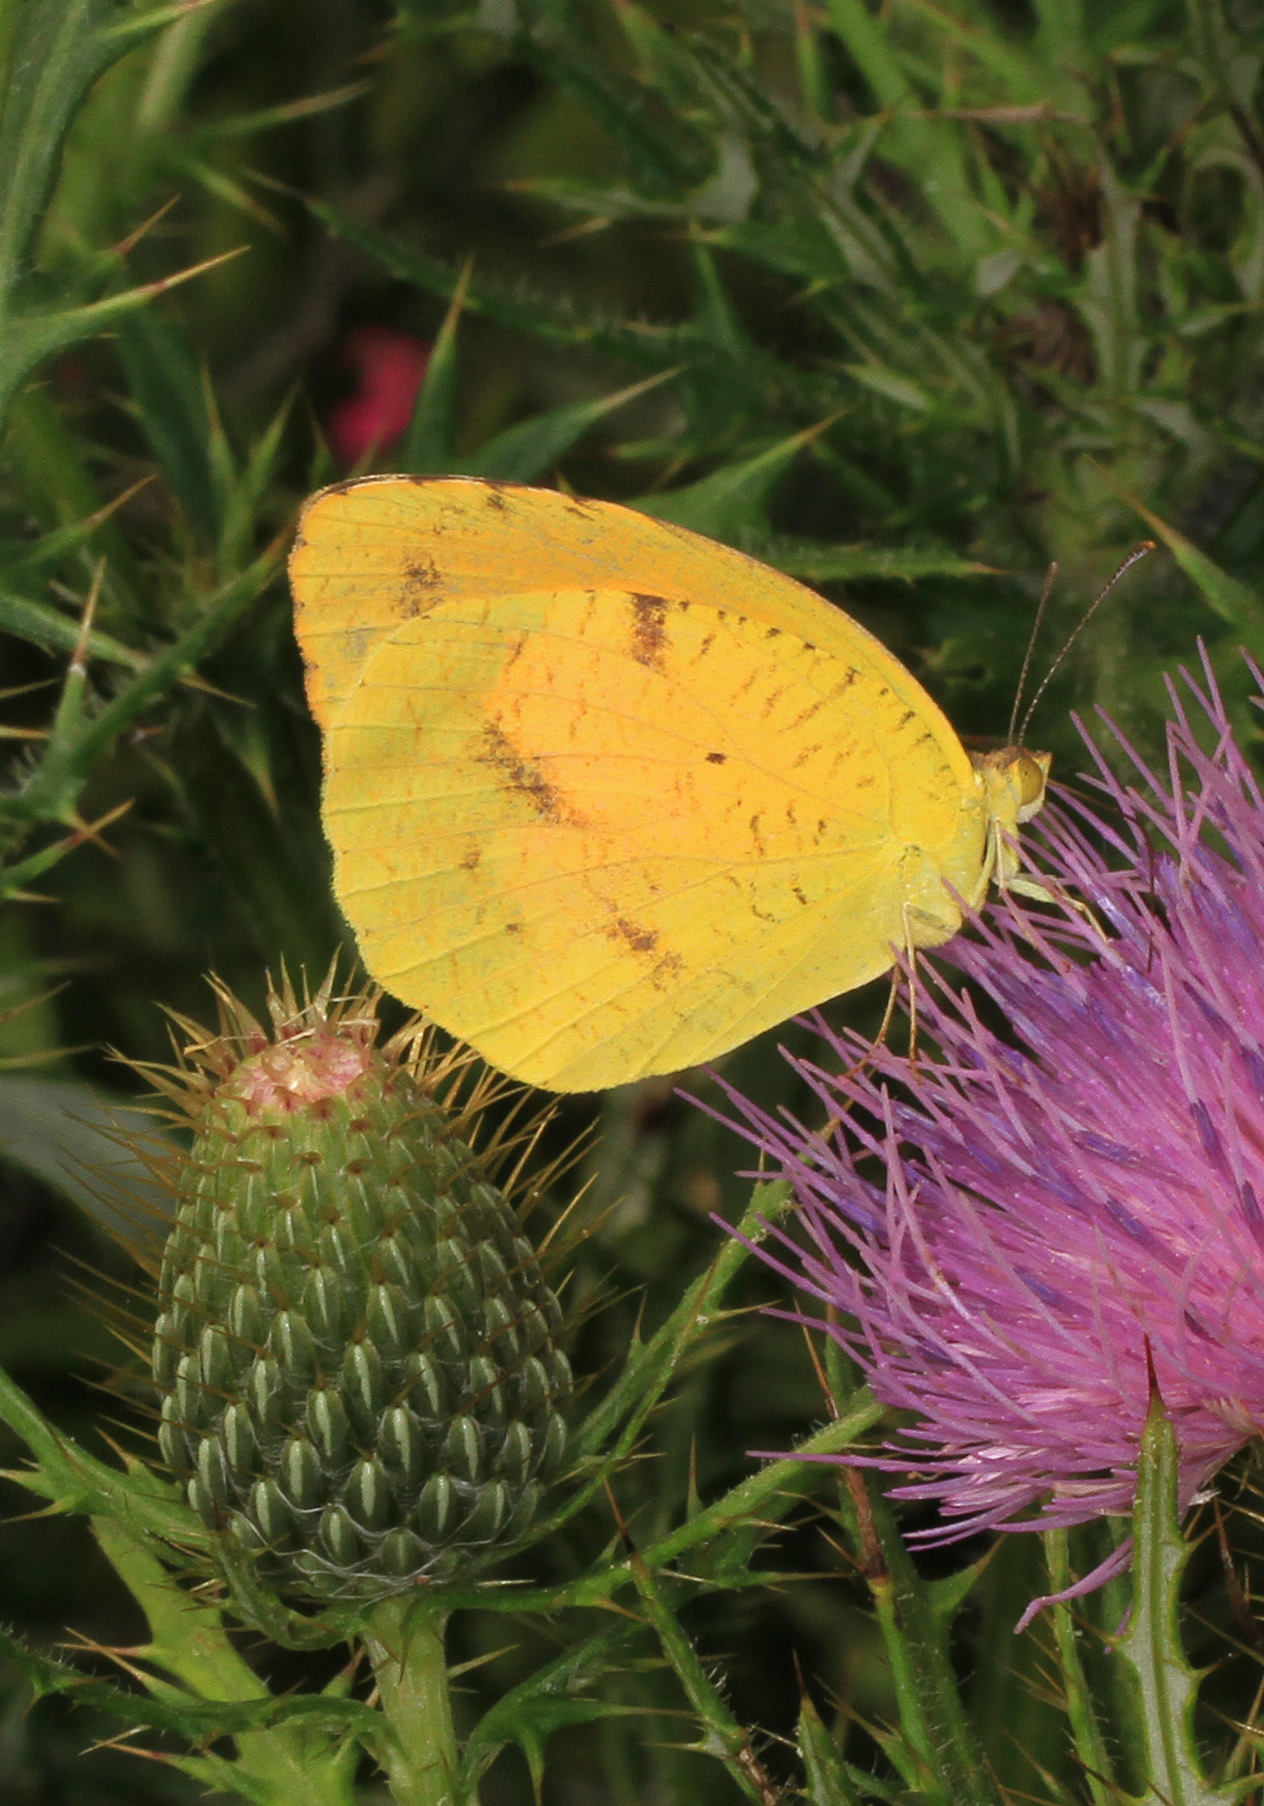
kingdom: Animalia
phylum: Arthropoda
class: Insecta
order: Lepidoptera
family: Pieridae
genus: Abaeis
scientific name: Abaeis nicippe
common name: Sleepy orange
